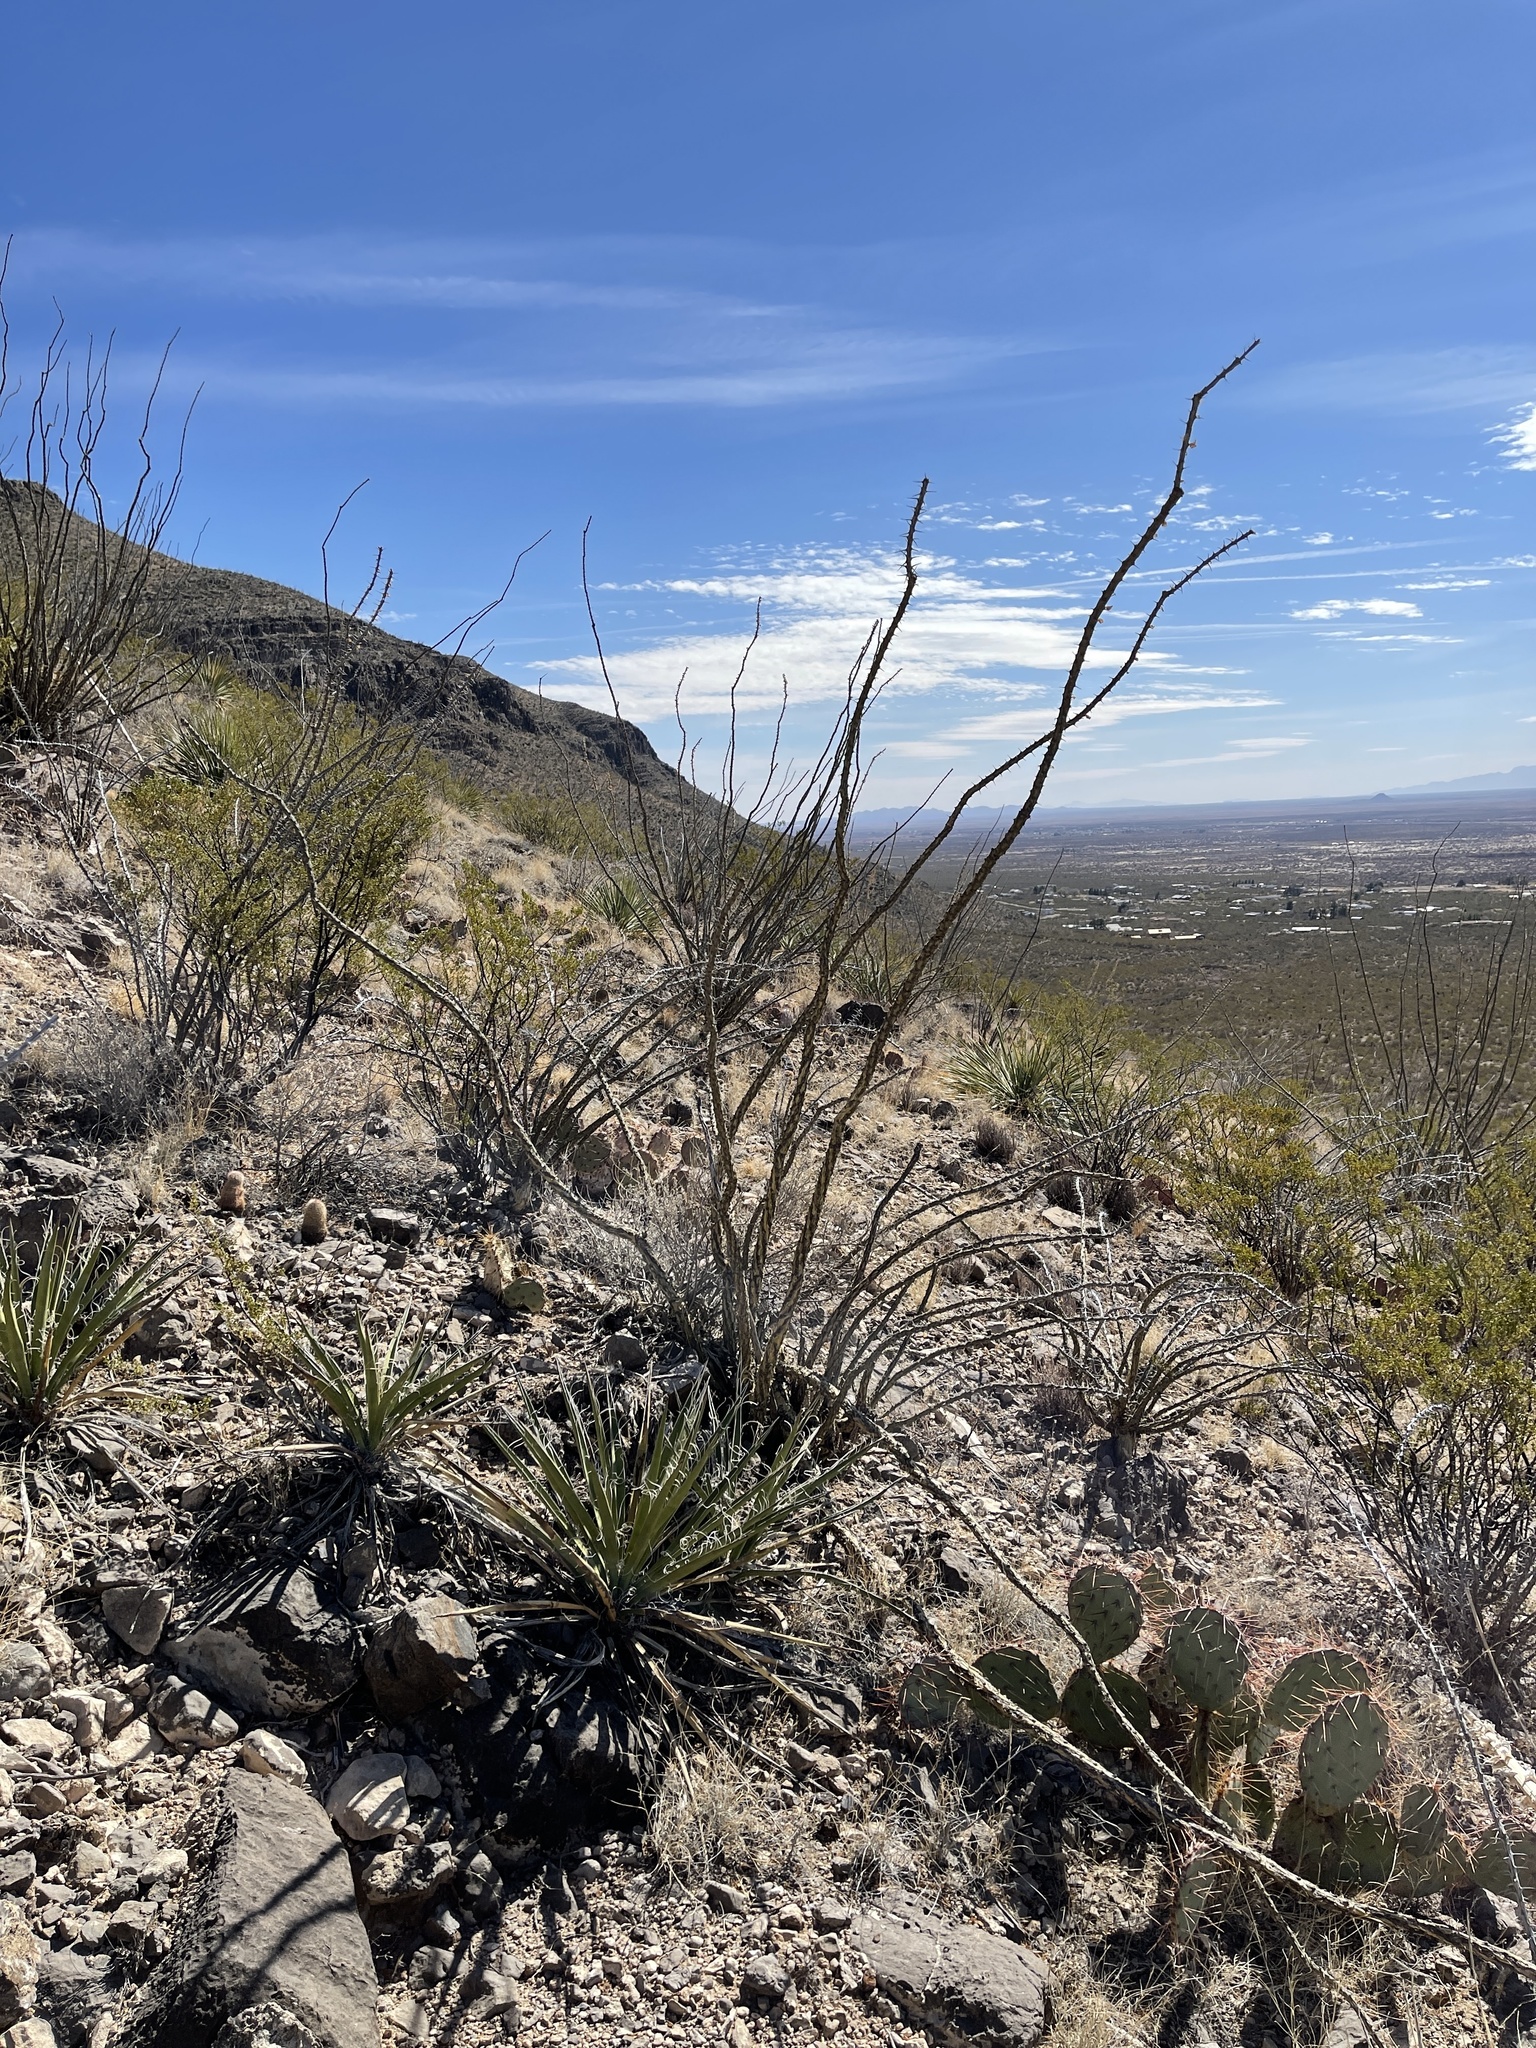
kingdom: Plantae
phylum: Tracheophyta
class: Magnoliopsida
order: Ericales
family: Fouquieriaceae
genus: Fouquieria
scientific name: Fouquieria splendens
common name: Vine-cactus
